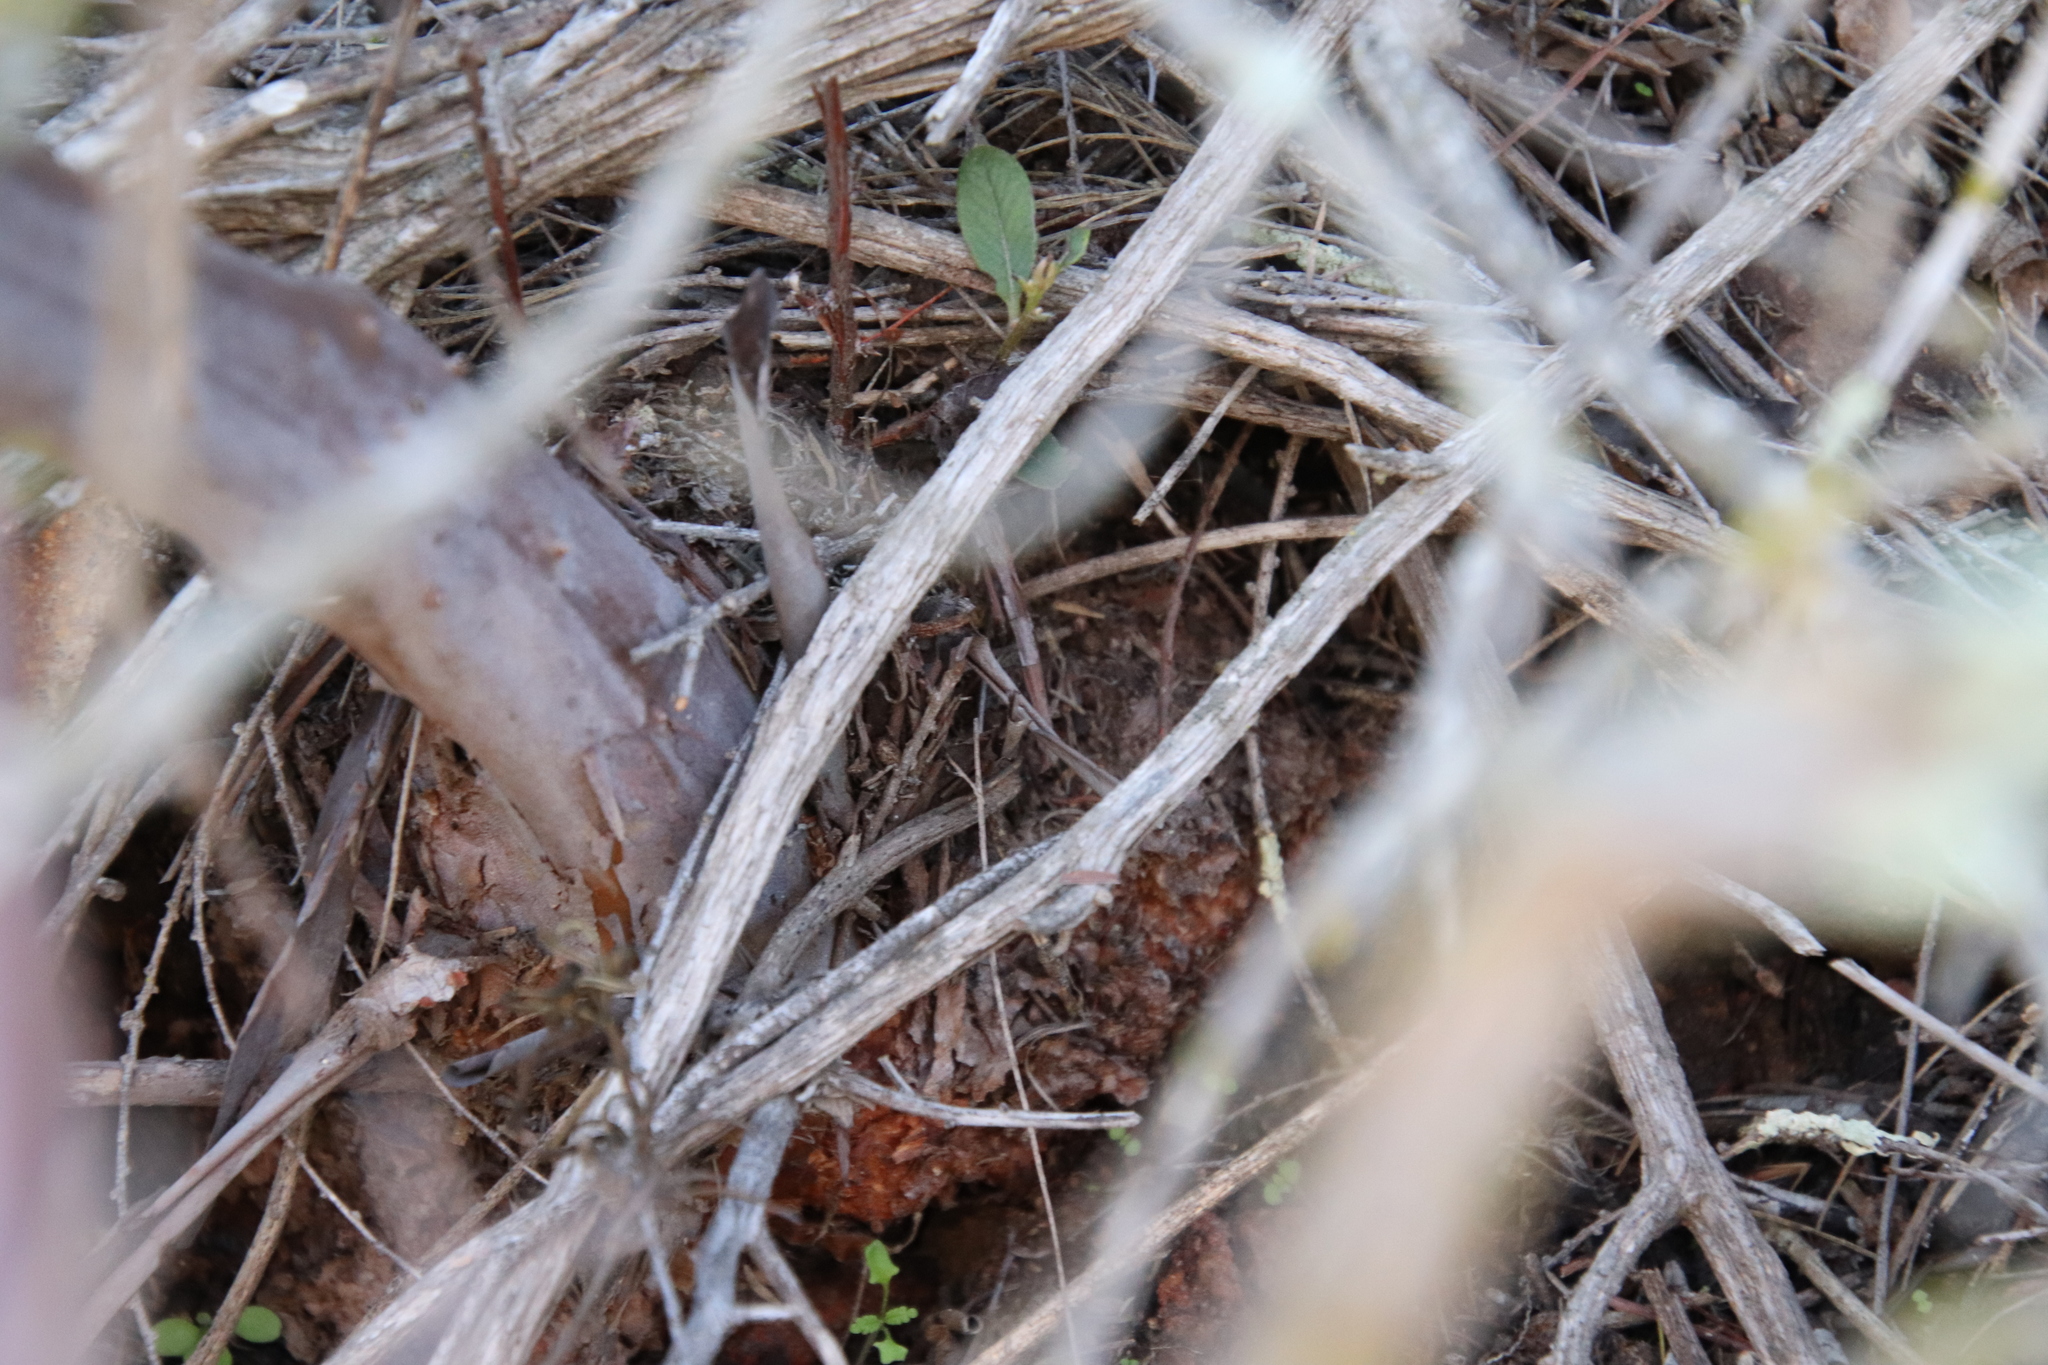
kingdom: Plantae
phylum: Tracheophyta
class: Magnoliopsida
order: Ericales
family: Ericaceae
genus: Arctostaphylos
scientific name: Arctostaphylos bicolor
